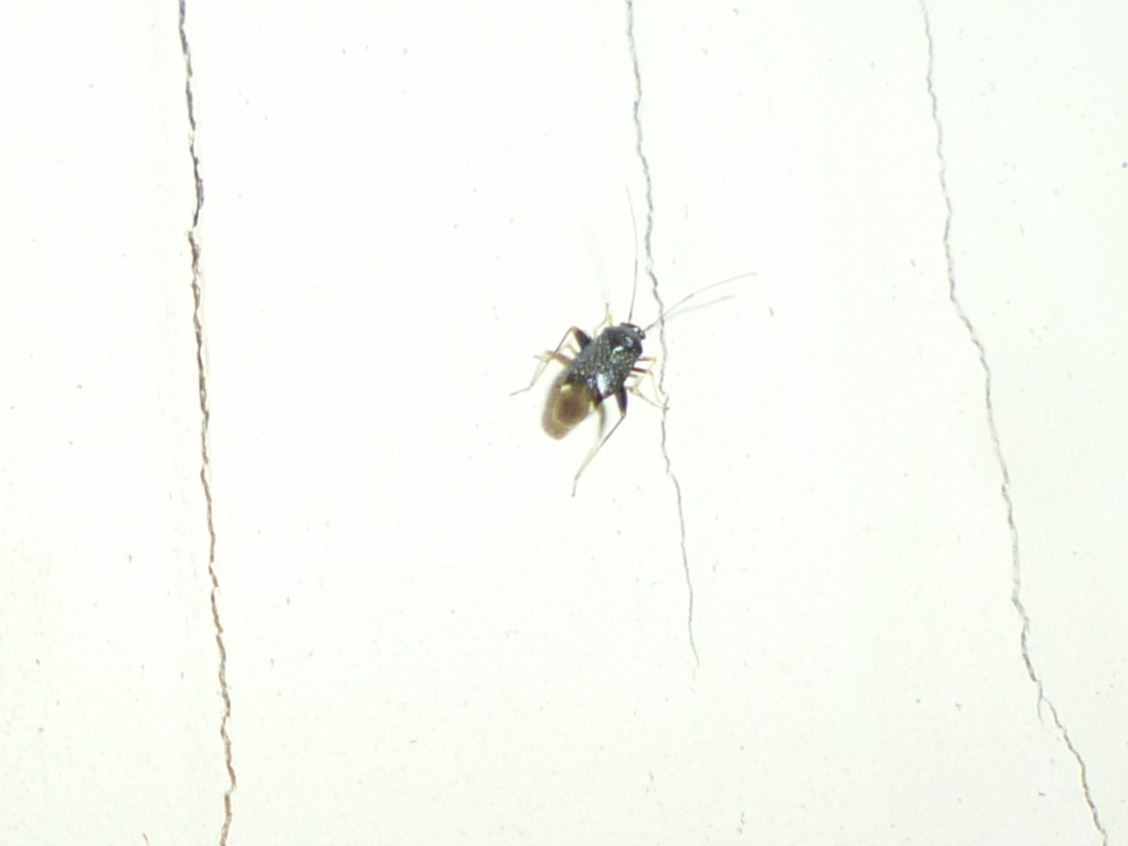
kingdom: Animalia
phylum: Arthropoda
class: Insecta
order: Hemiptera
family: Miridae
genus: Microtechnites
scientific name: Microtechnites bractatus
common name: Garden fleahopper
